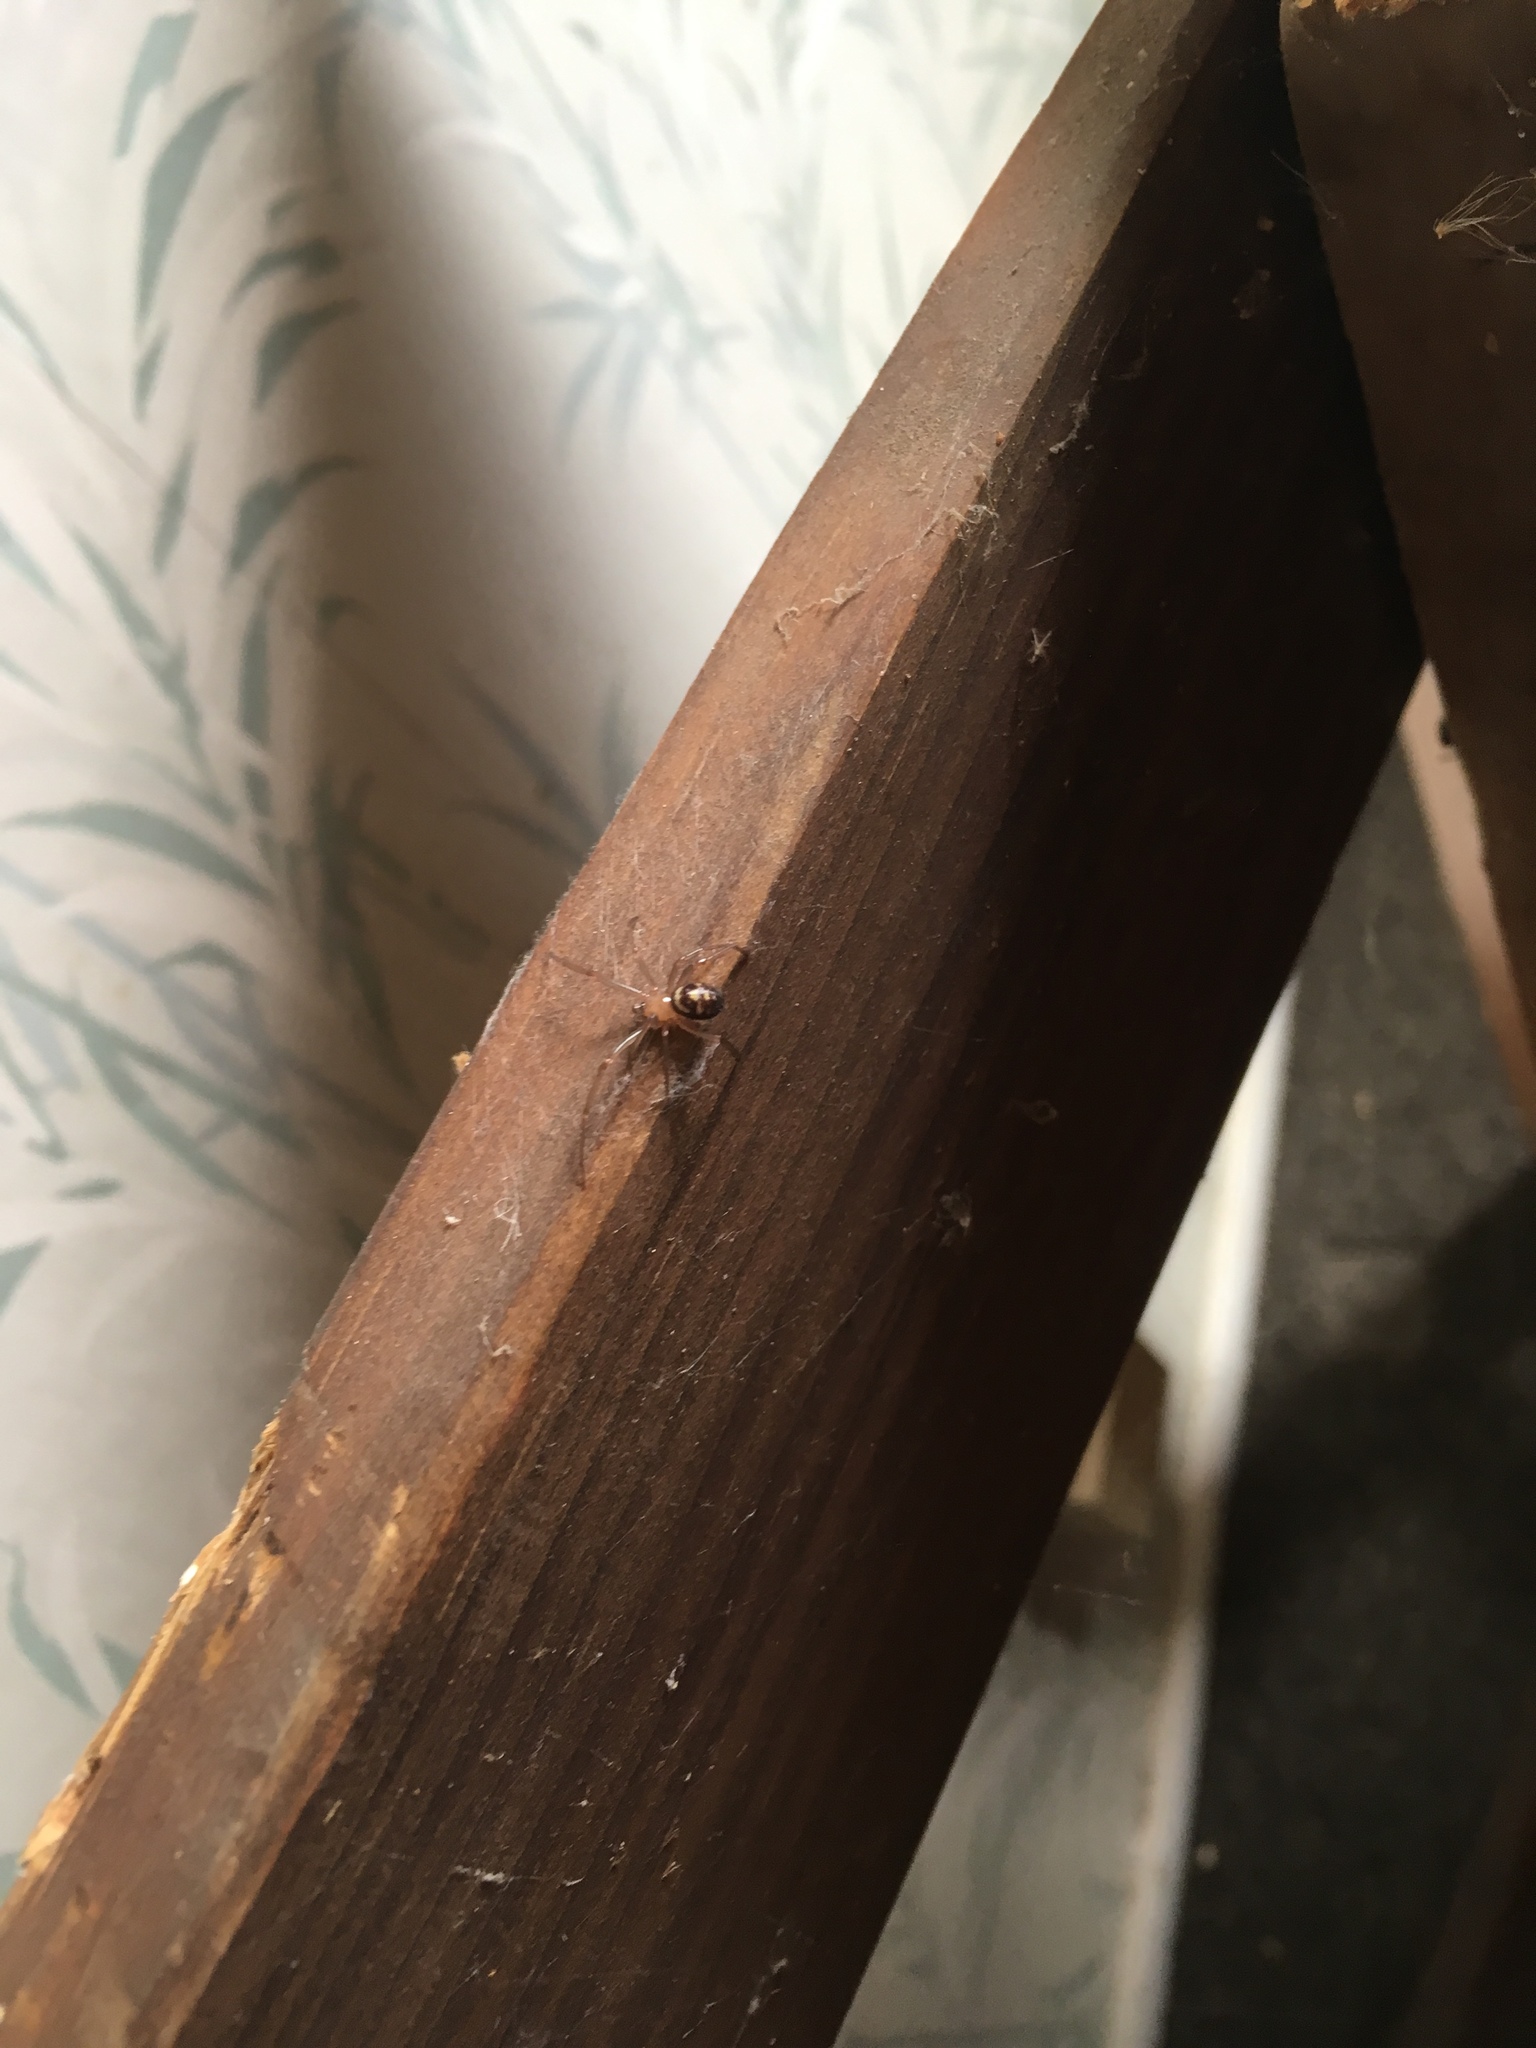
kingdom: Animalia
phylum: Arthropoda
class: Arachnida
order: Araneae
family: Theridiidae
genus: Steatoda
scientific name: Steatoda grossa
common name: False black widow
